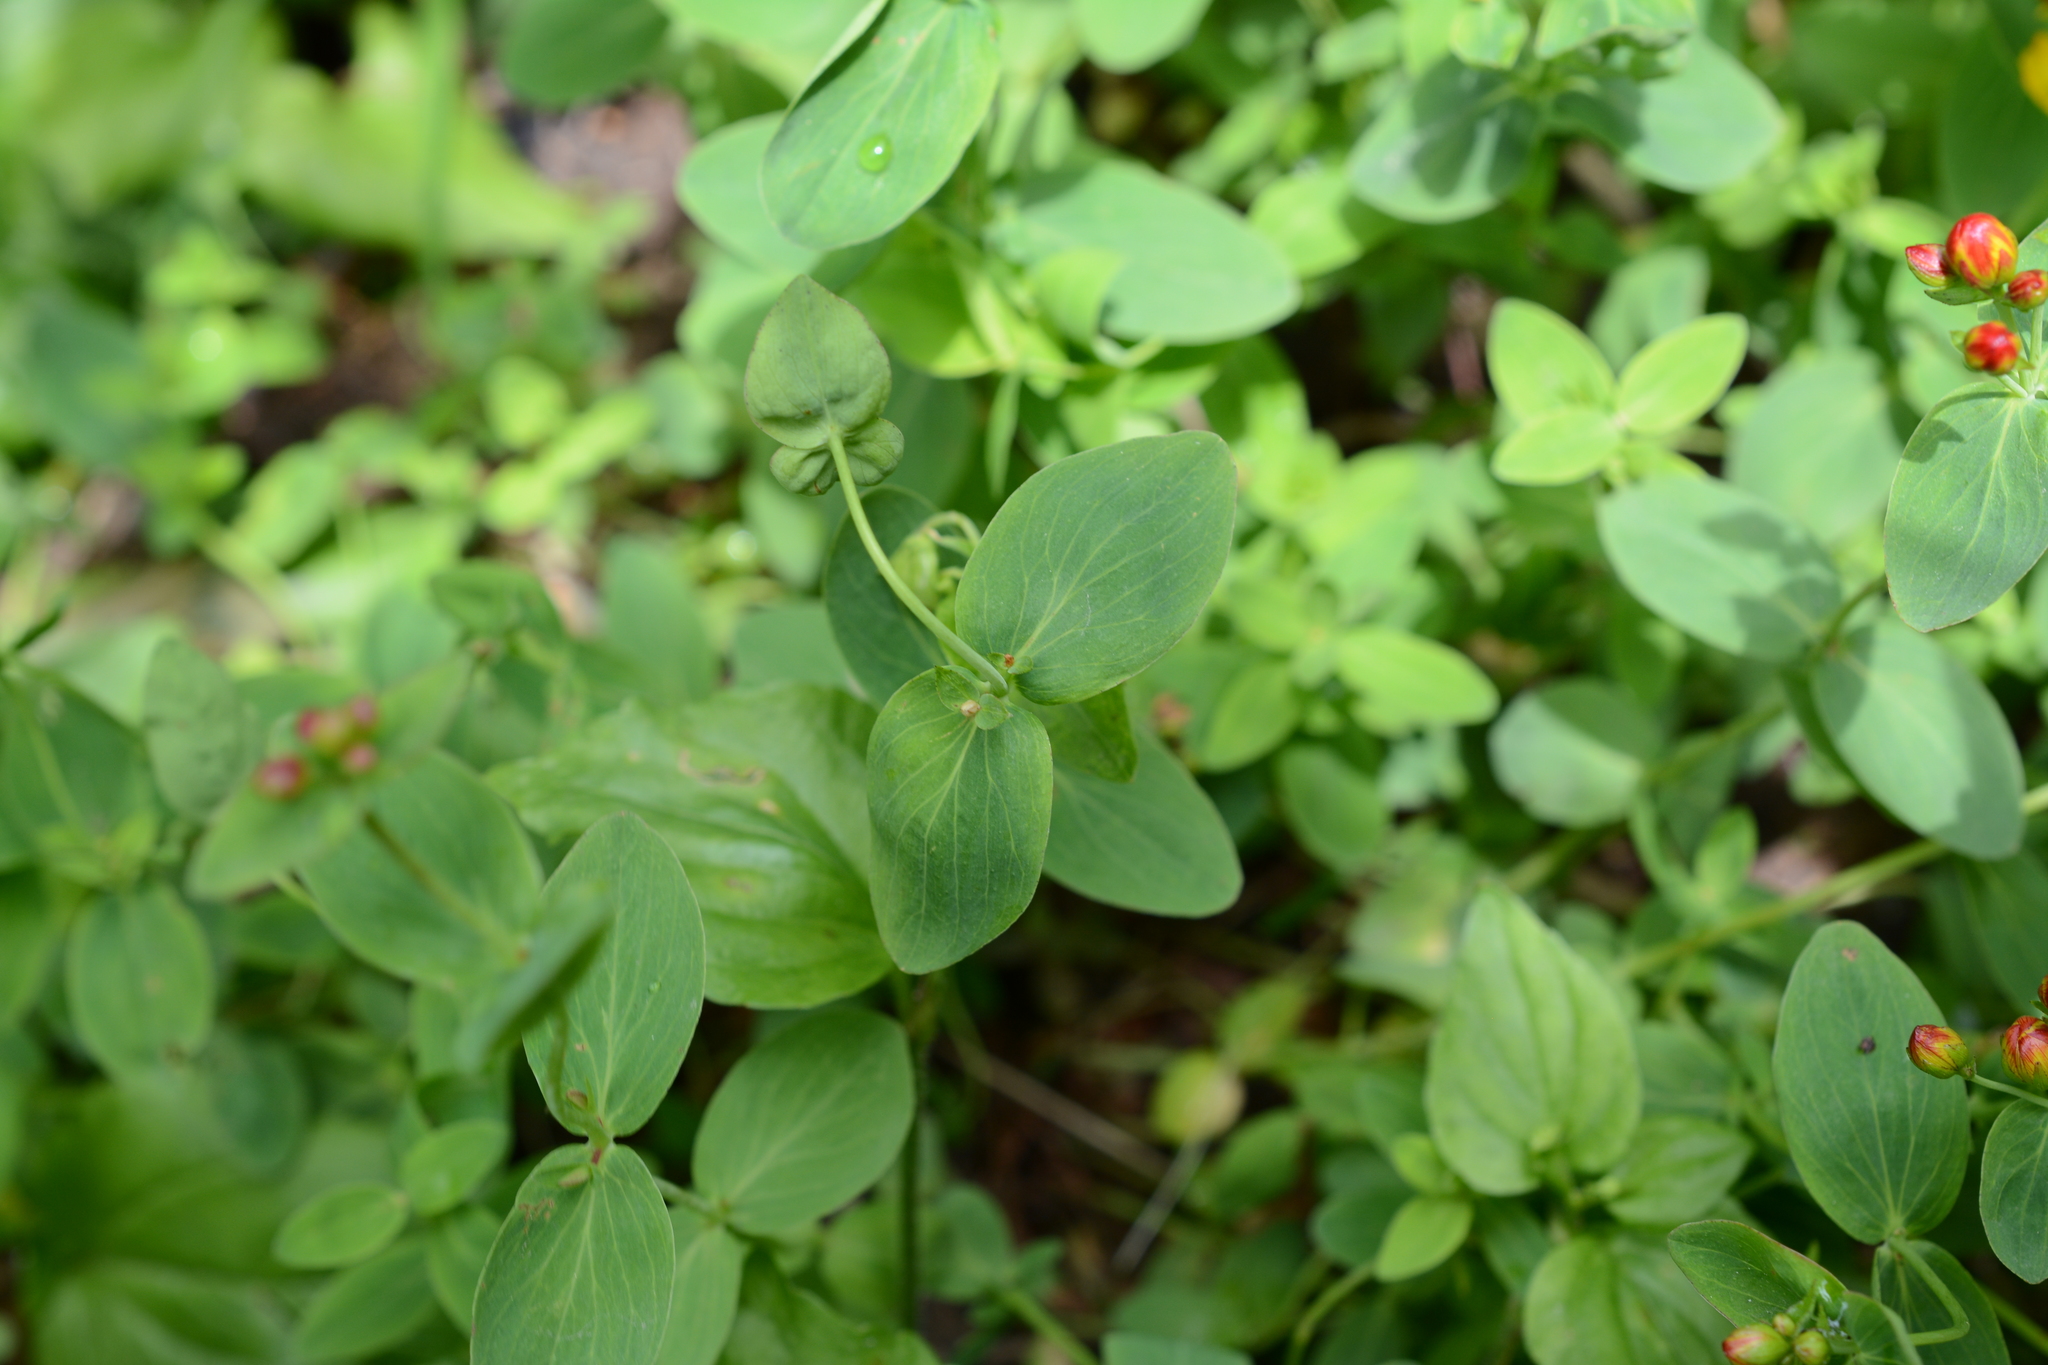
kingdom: Plantae
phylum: Tracheophyta
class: Magnoliopsida
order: Malpighiales
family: Hypericaceae
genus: Hypericum
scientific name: Hypericum scouleri
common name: Scouler's st. john's-wort
